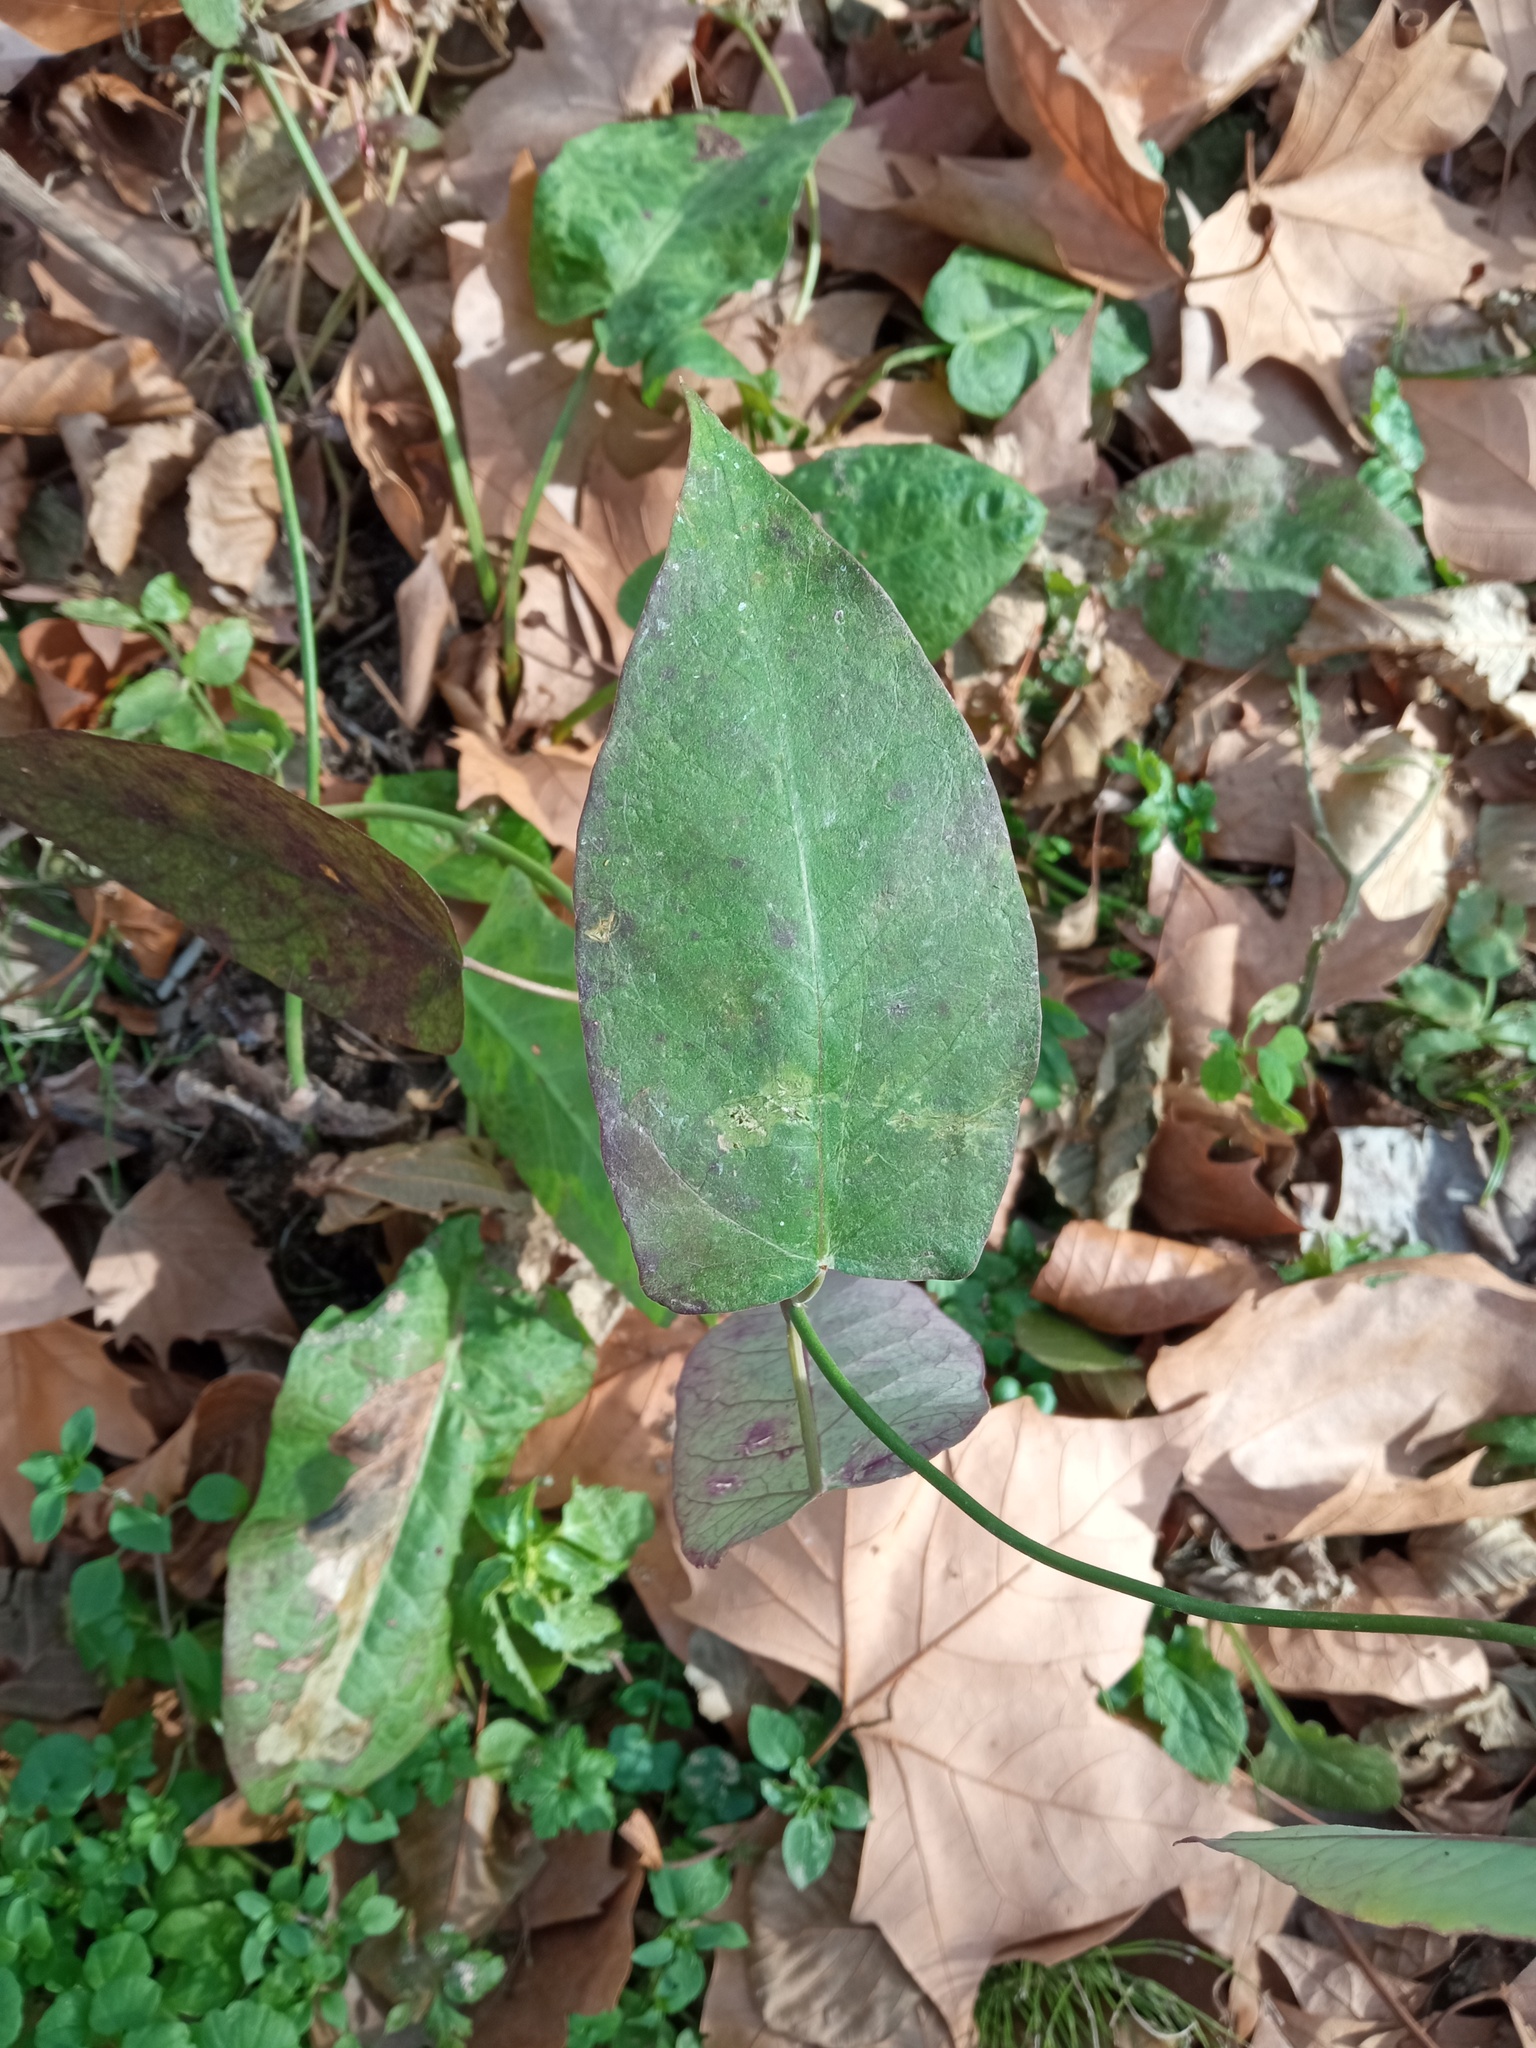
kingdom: Plantae
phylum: Tracheophyta
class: Magnoliopsida
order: Gentianales
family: Apocynaceae
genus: Araujia
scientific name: Araujia sericifera
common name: White bladderflower
